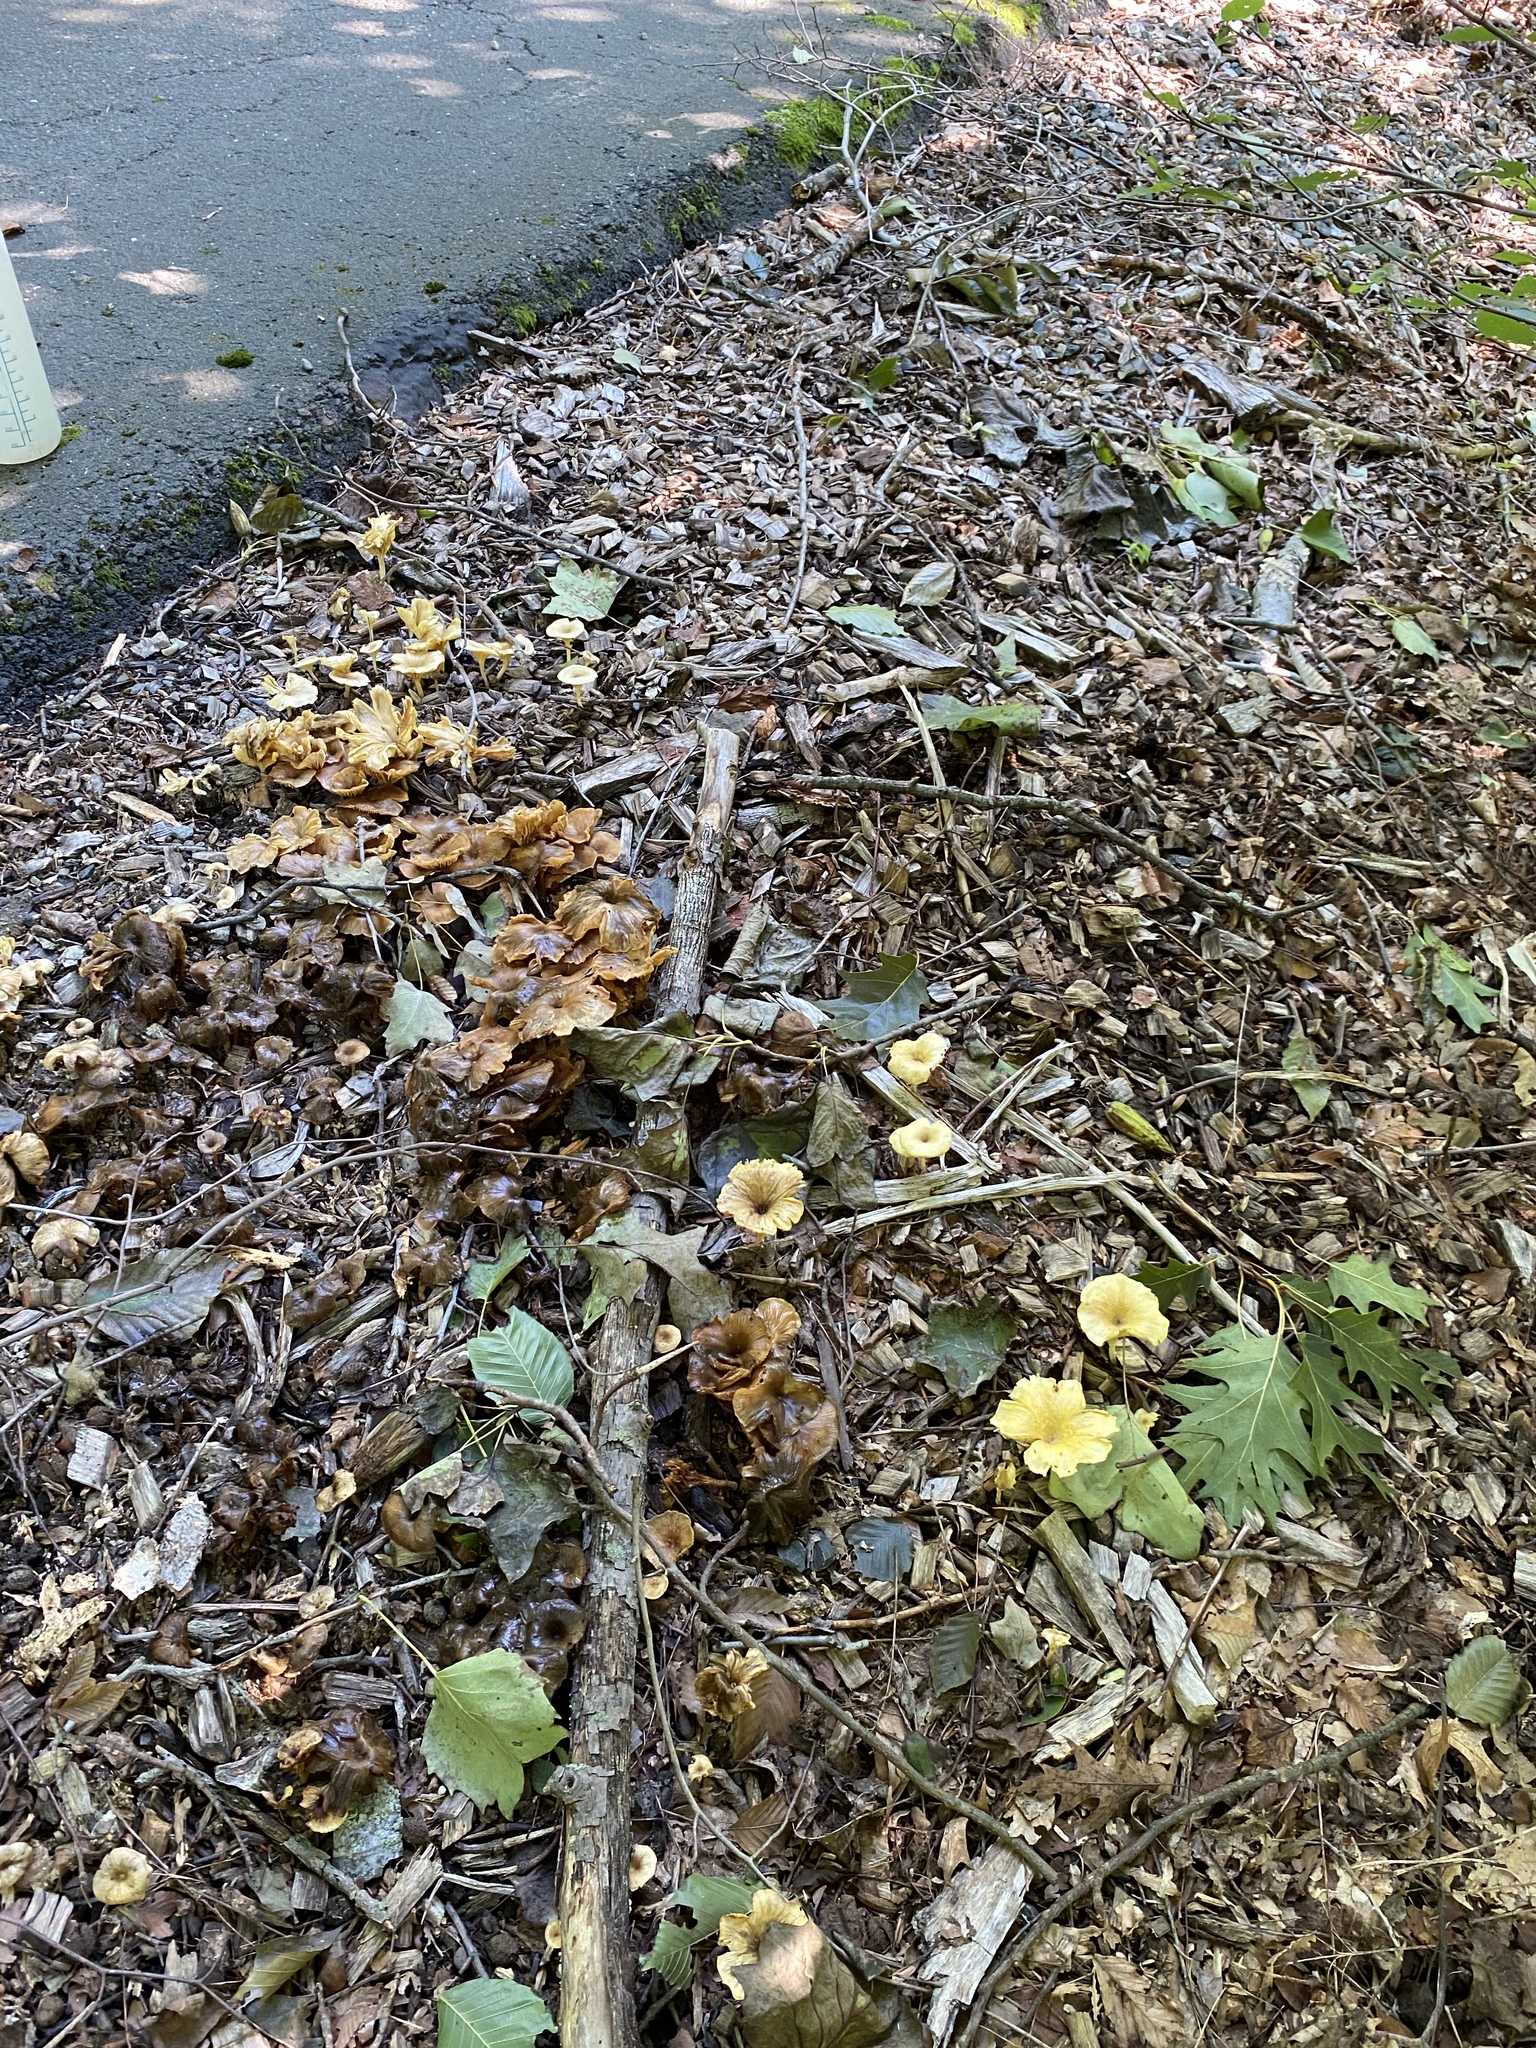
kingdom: Fungi
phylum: Basidiomycota
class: Agaricomycetes
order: Agaricales
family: Marasmiaceae
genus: Gerronema
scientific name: Gerronema strombodes
